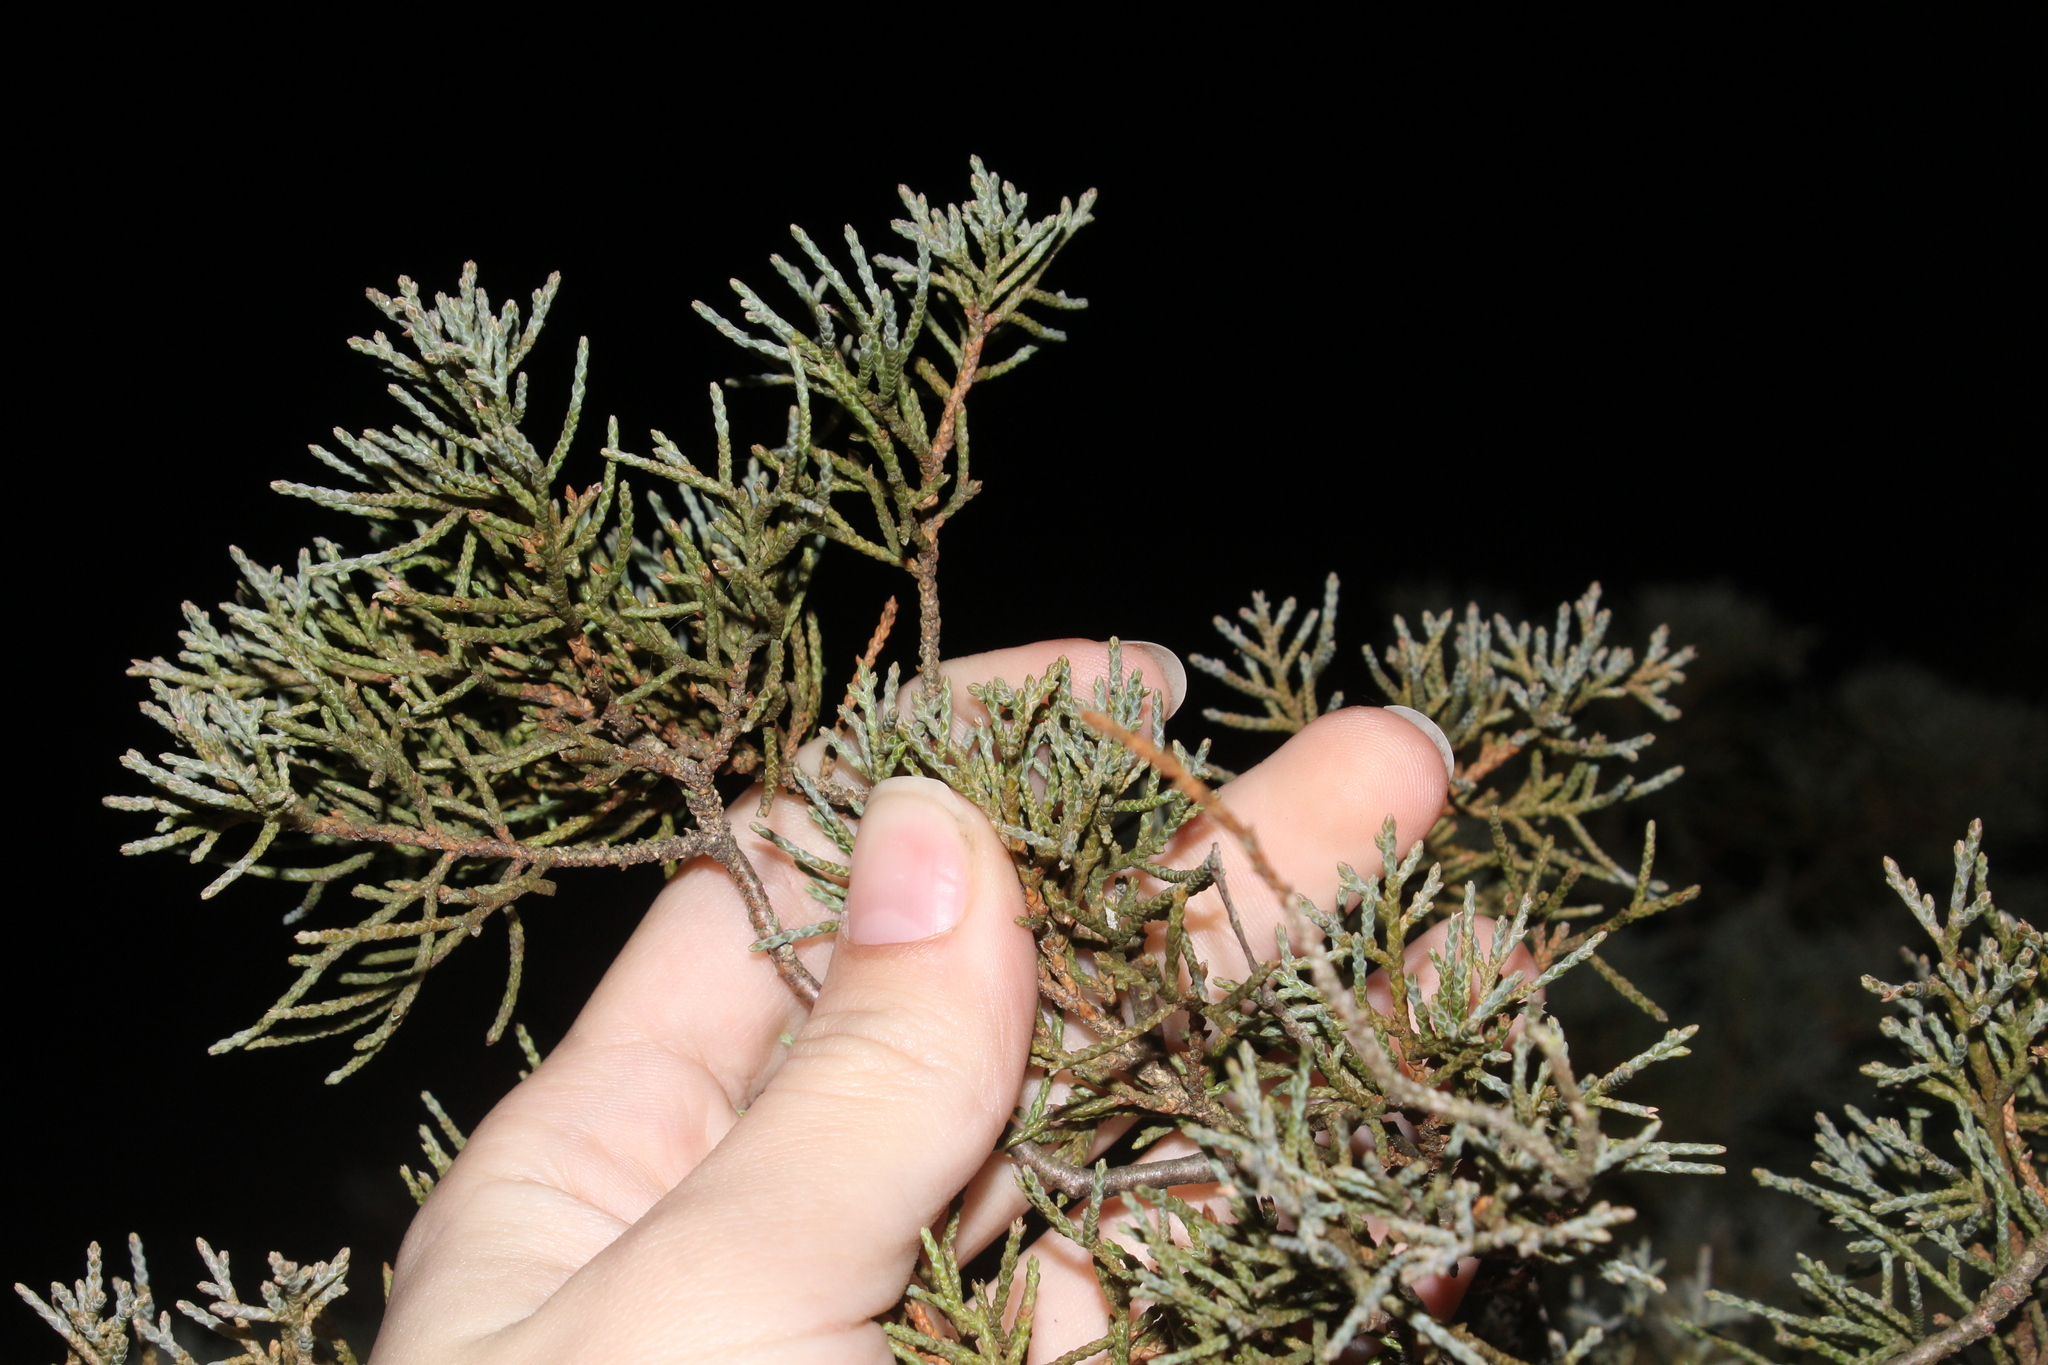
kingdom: Plantae
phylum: Tracheophyta
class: Pinopsida
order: Pinales
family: Cupressaceae
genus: Juniperus
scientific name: Juniperus virginiana
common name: Red juniper
